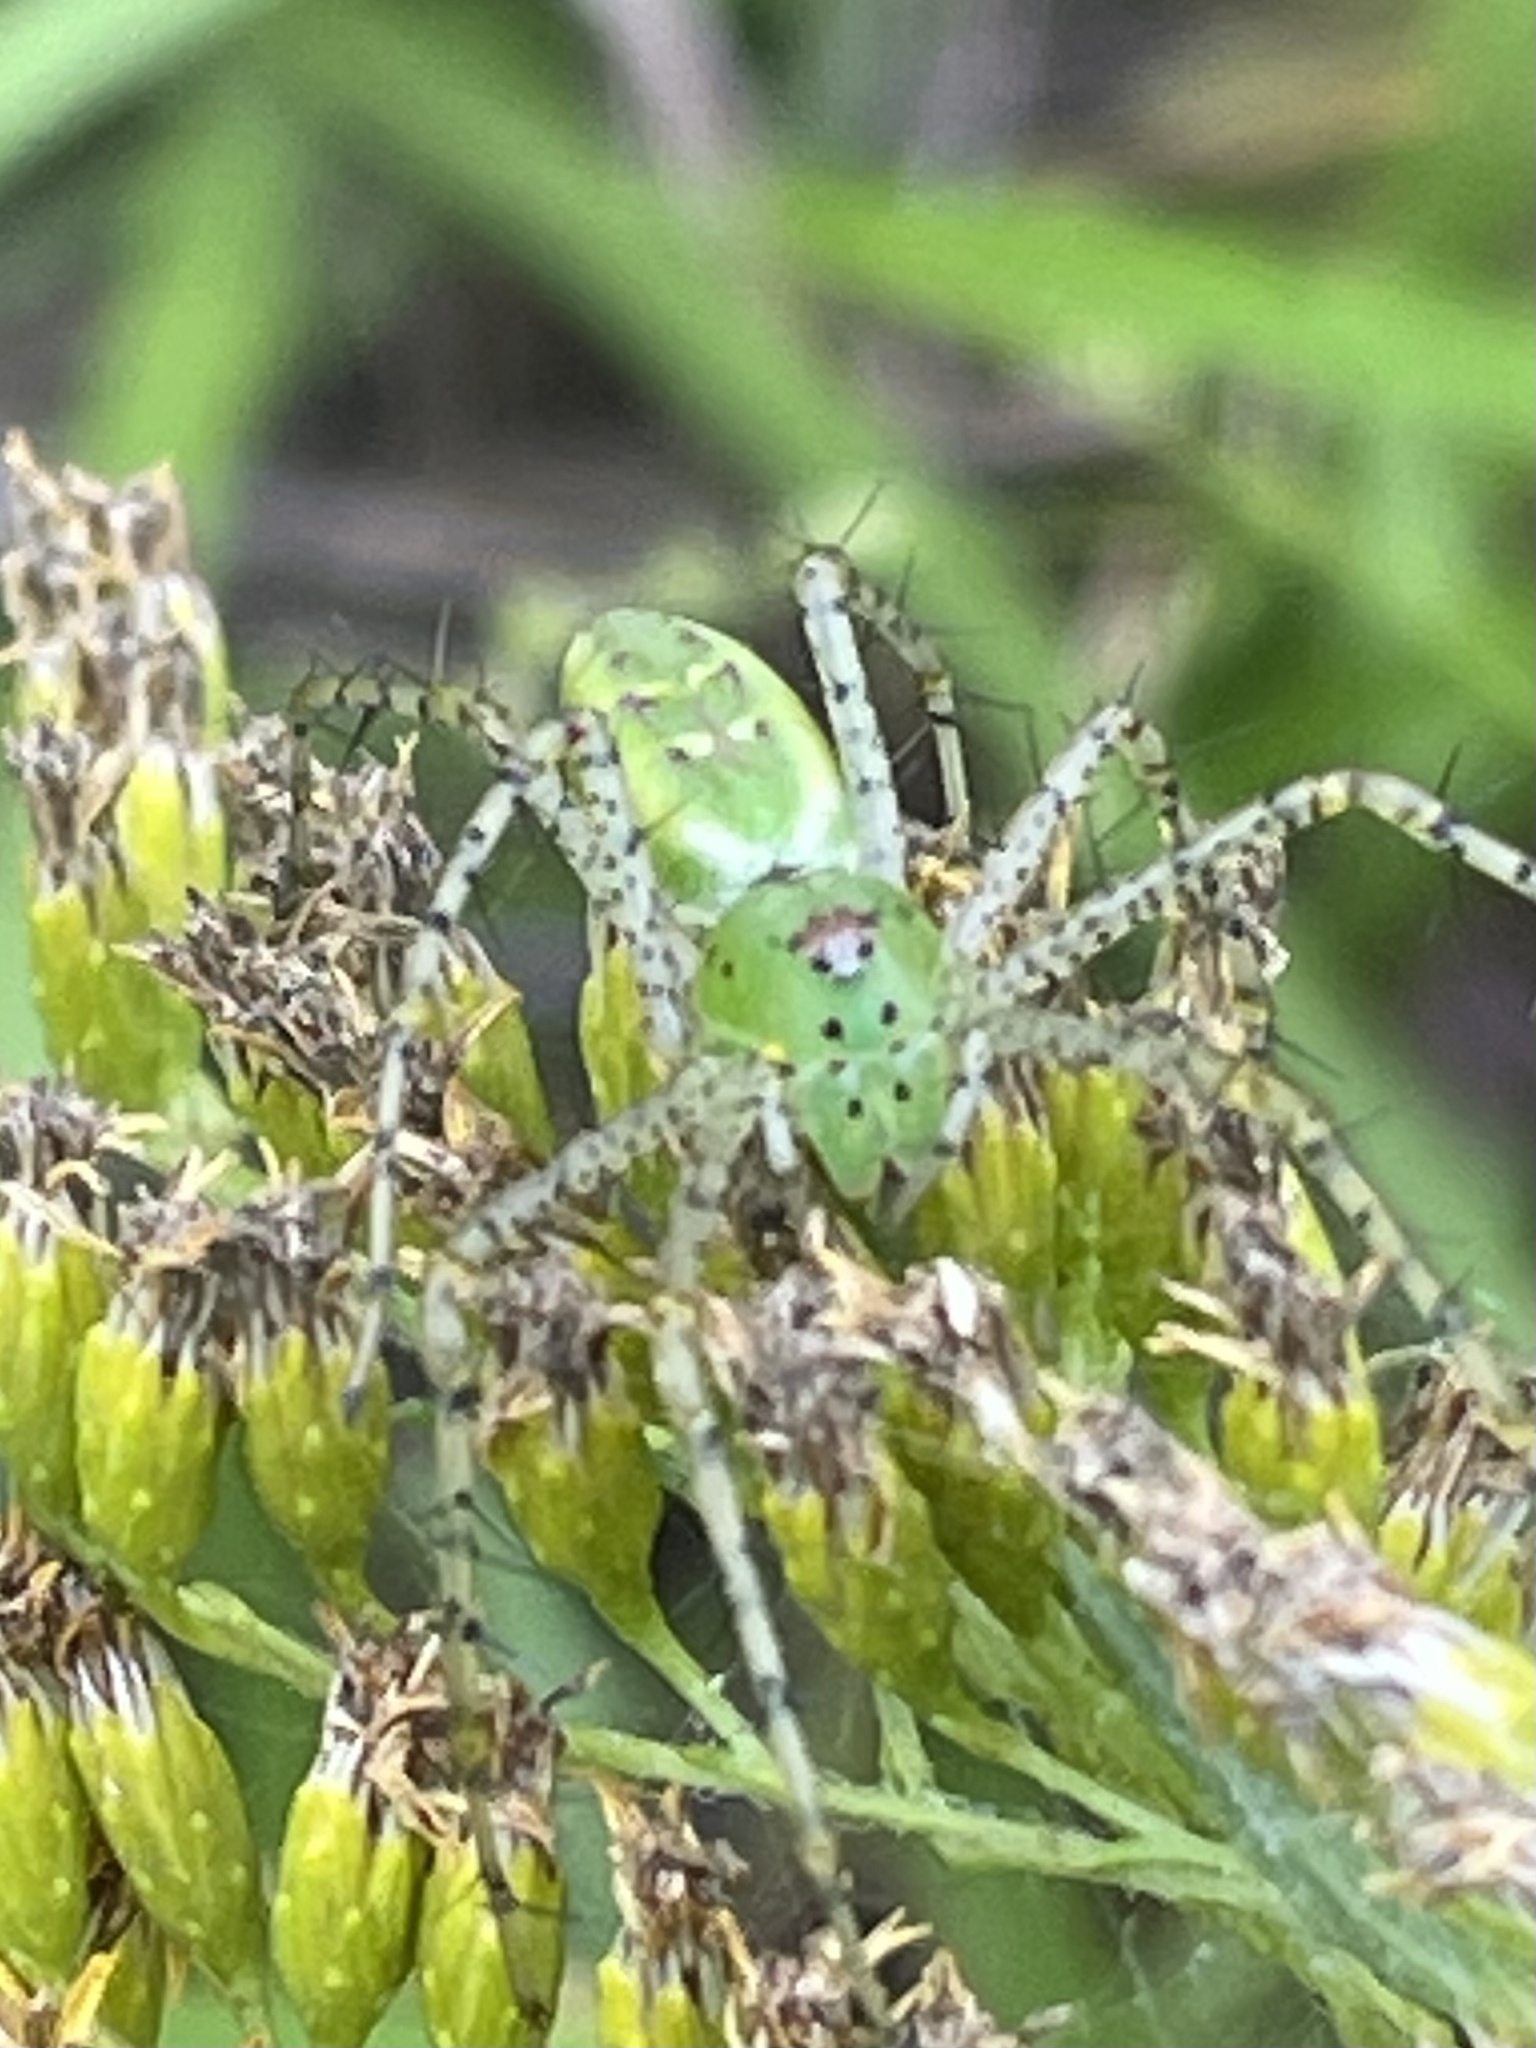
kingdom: Animalia
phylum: Arthropoda
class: Arachnida
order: Araneae
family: Oxyopidae
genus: Peucetia
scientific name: Peucetia viridans
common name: Lynx spiders
